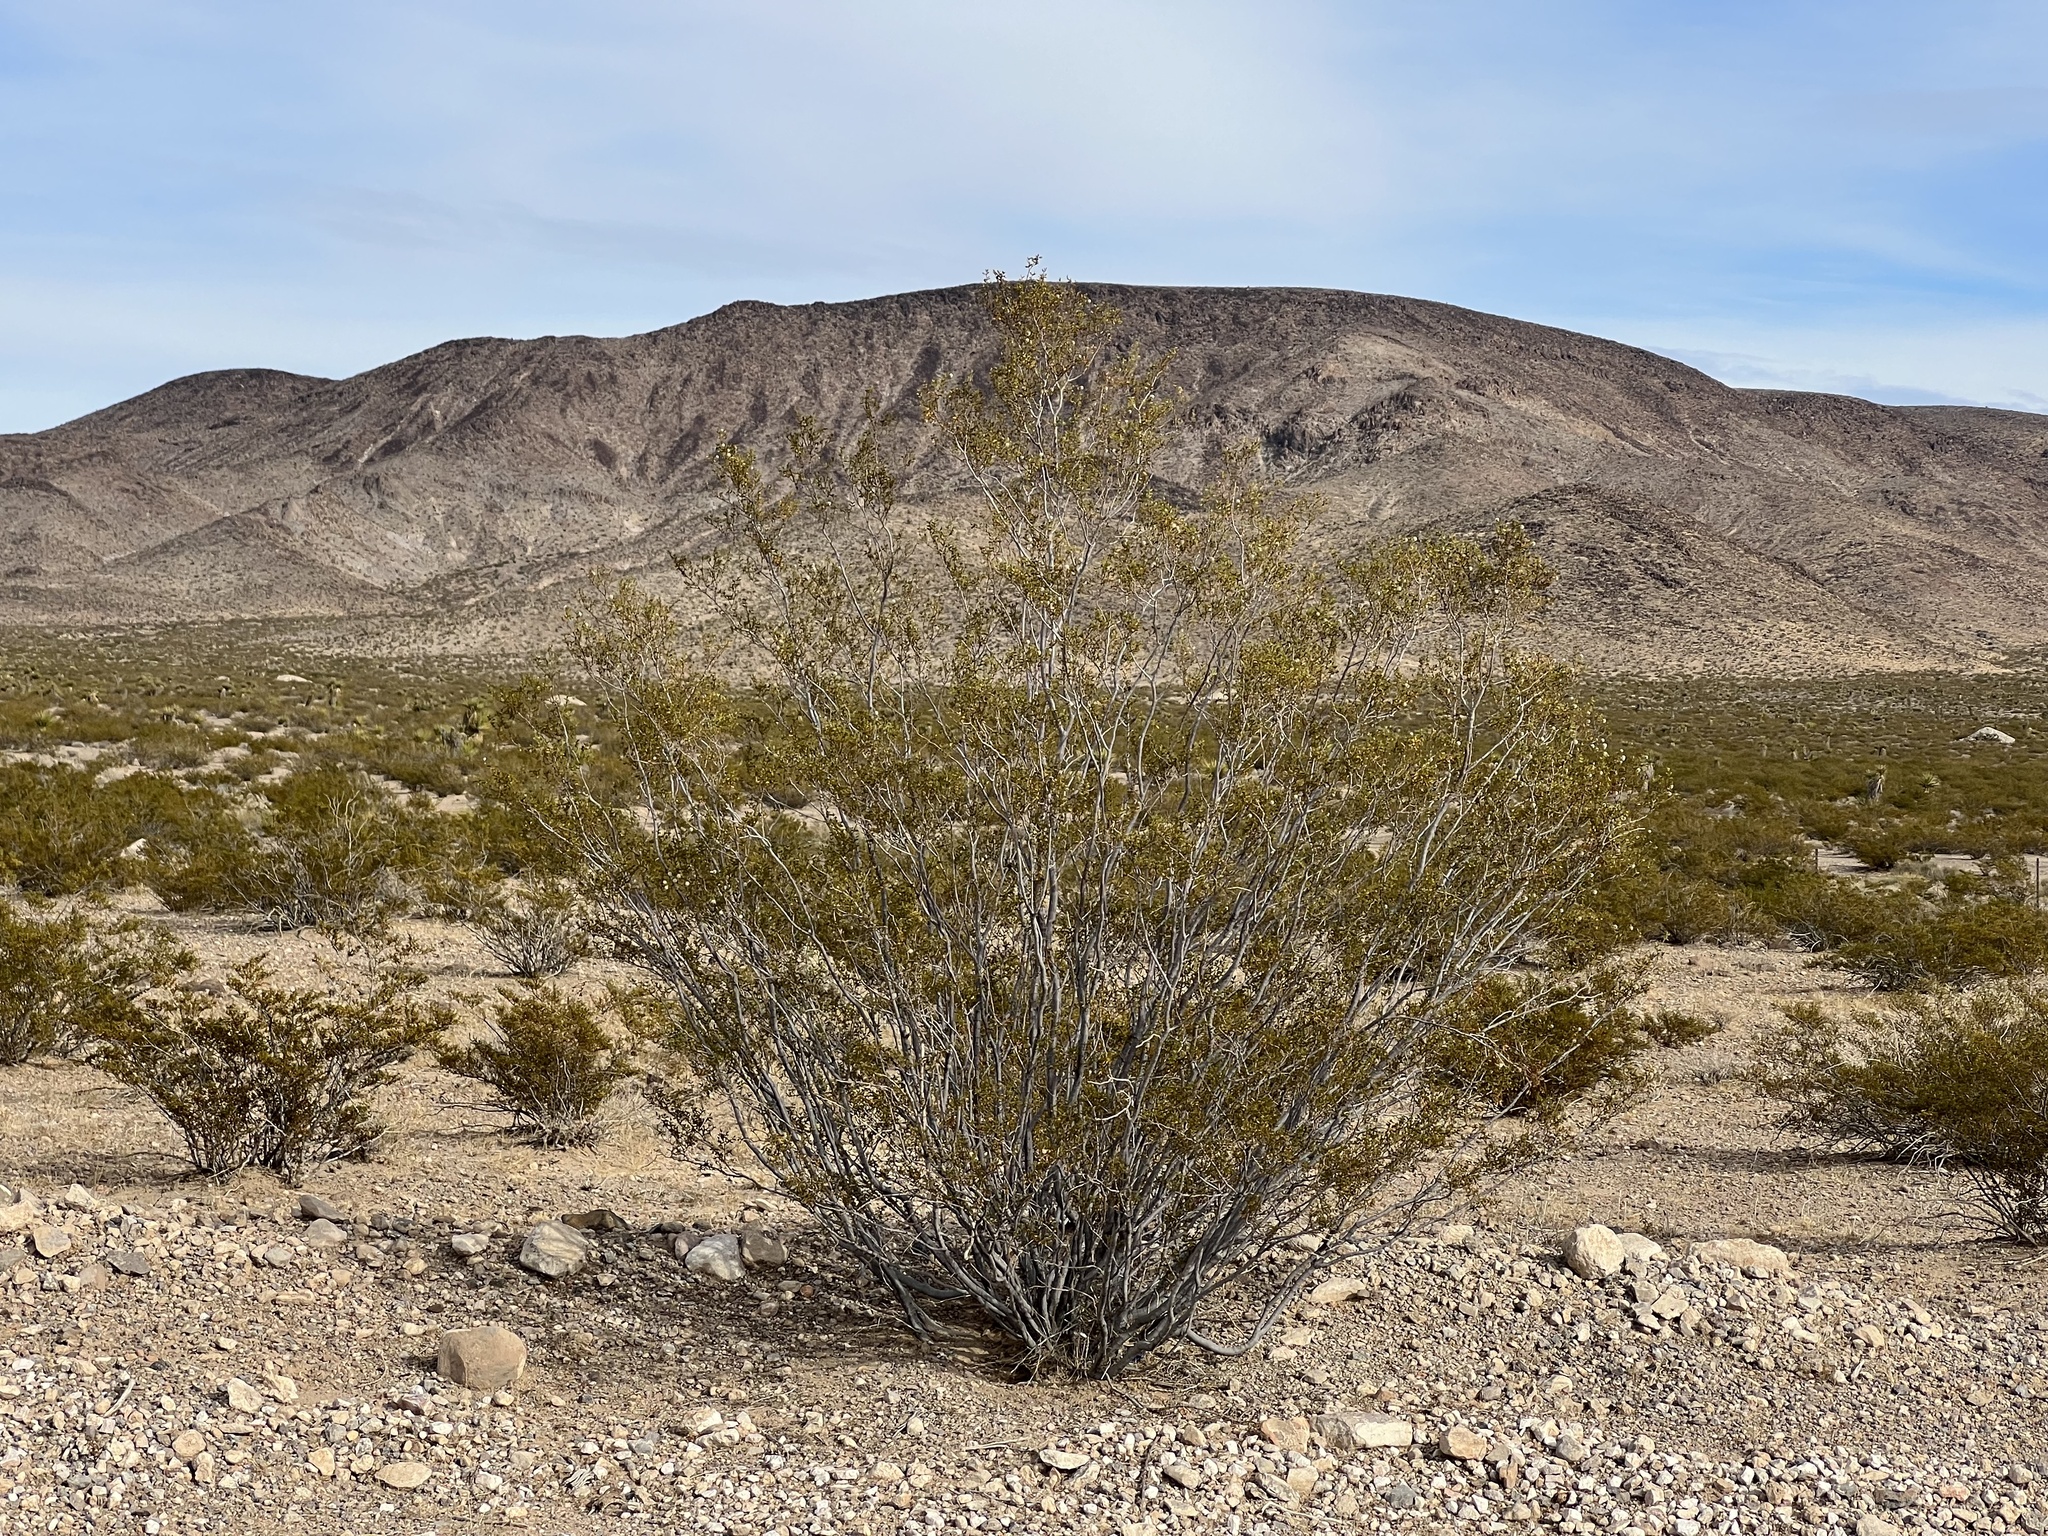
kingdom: Plantae
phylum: Tracheophyta
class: Magnoliopsida
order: Zygophyllales
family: Zygophyllaceae
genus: Larrea
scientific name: Larrea tridentata
